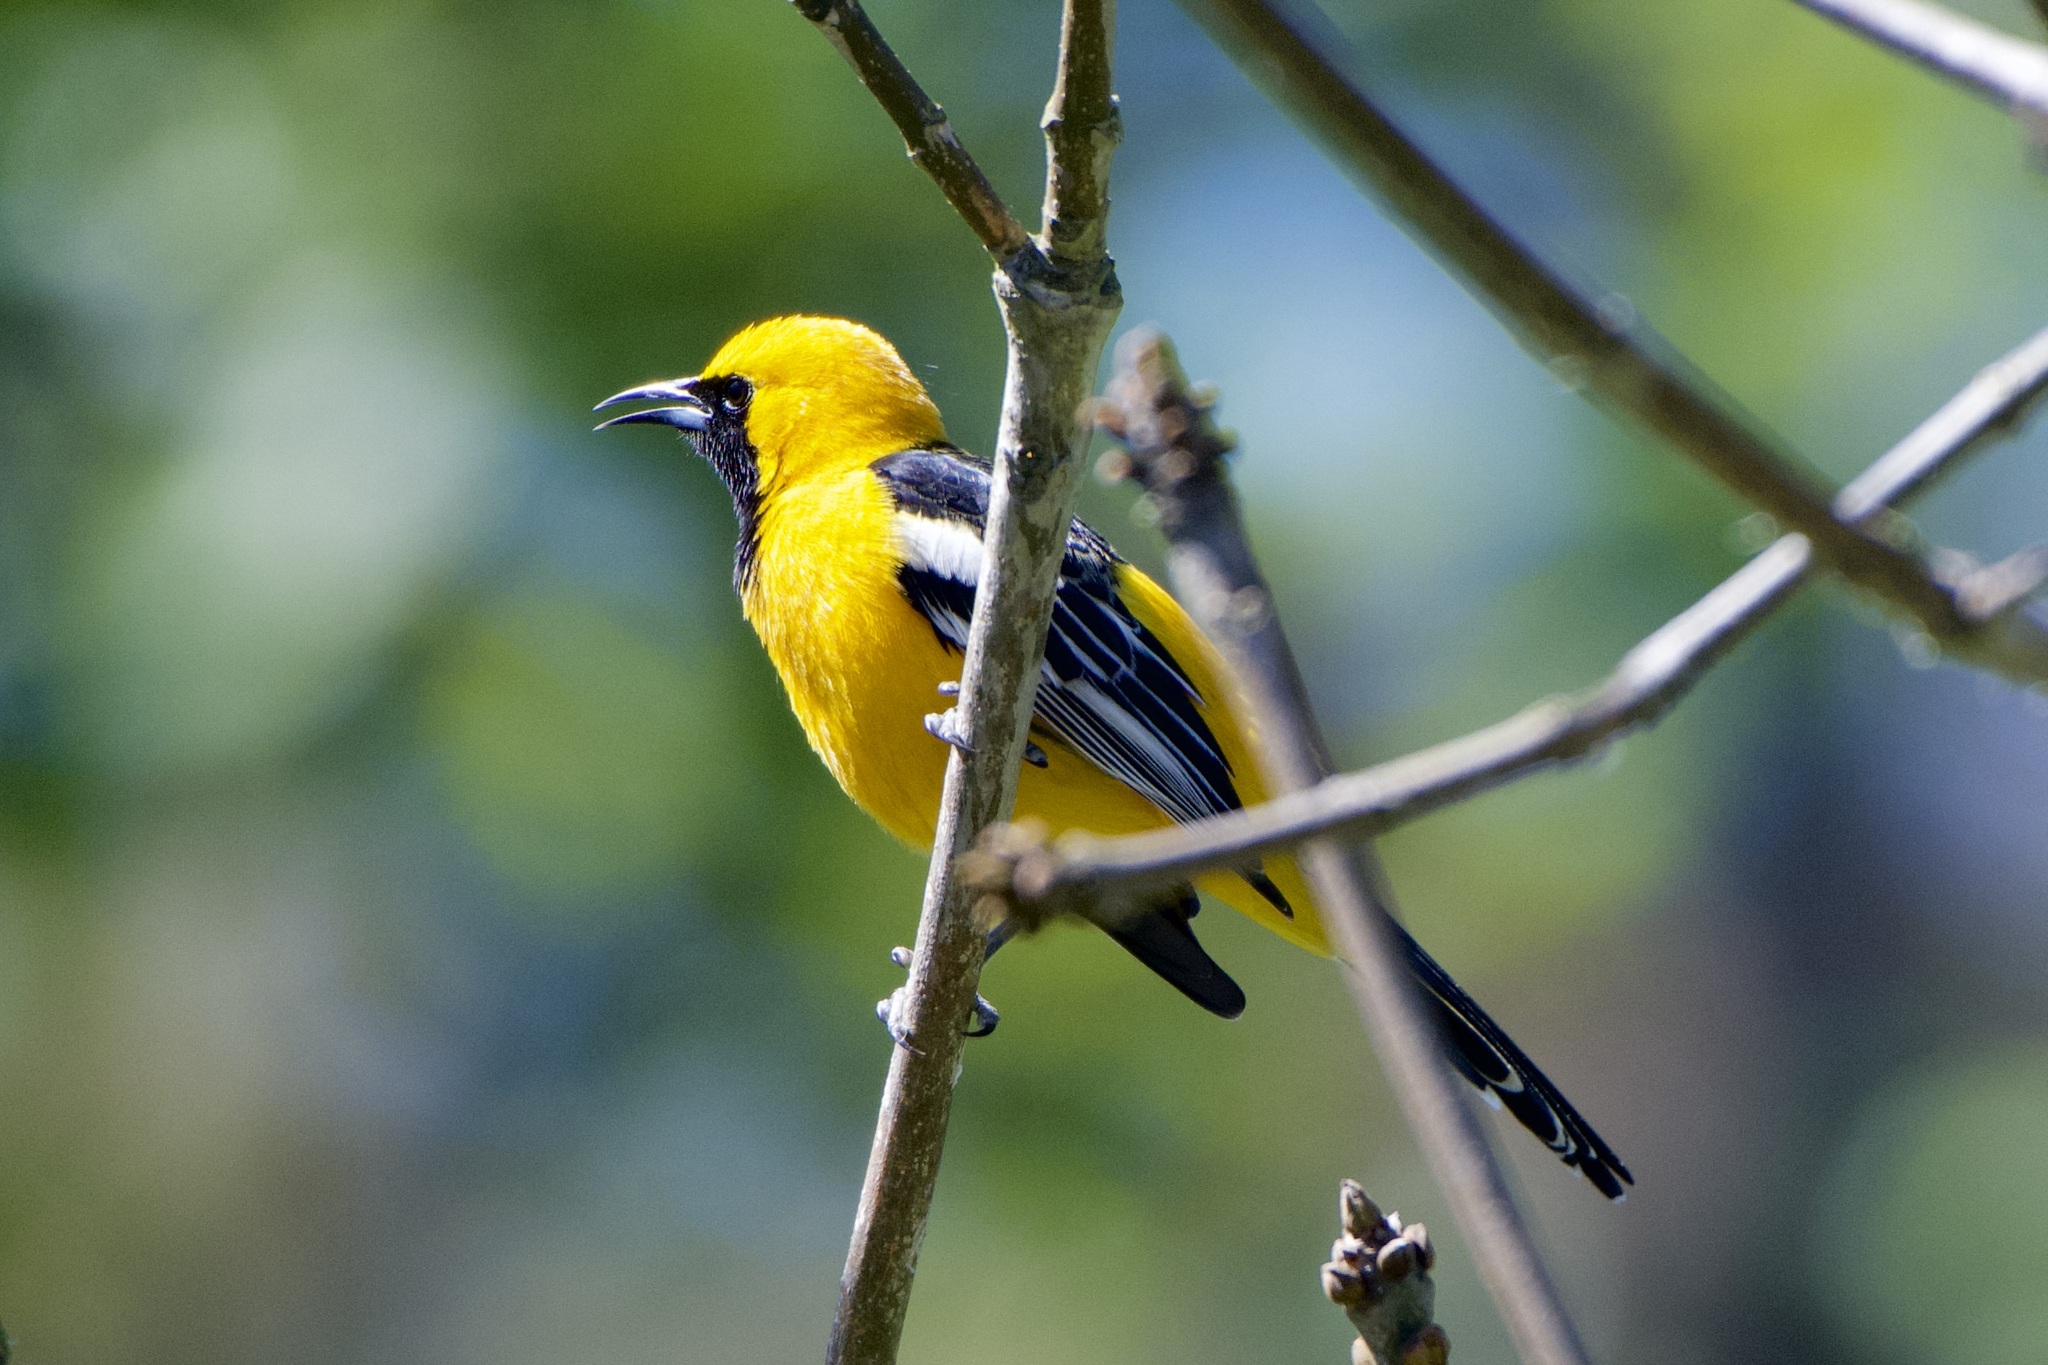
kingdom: Animalia
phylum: Chordata
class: Aves
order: Passeriformes
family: Icteridae
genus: Icterus
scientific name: Icterus cucullatus
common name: Hooded oriole
